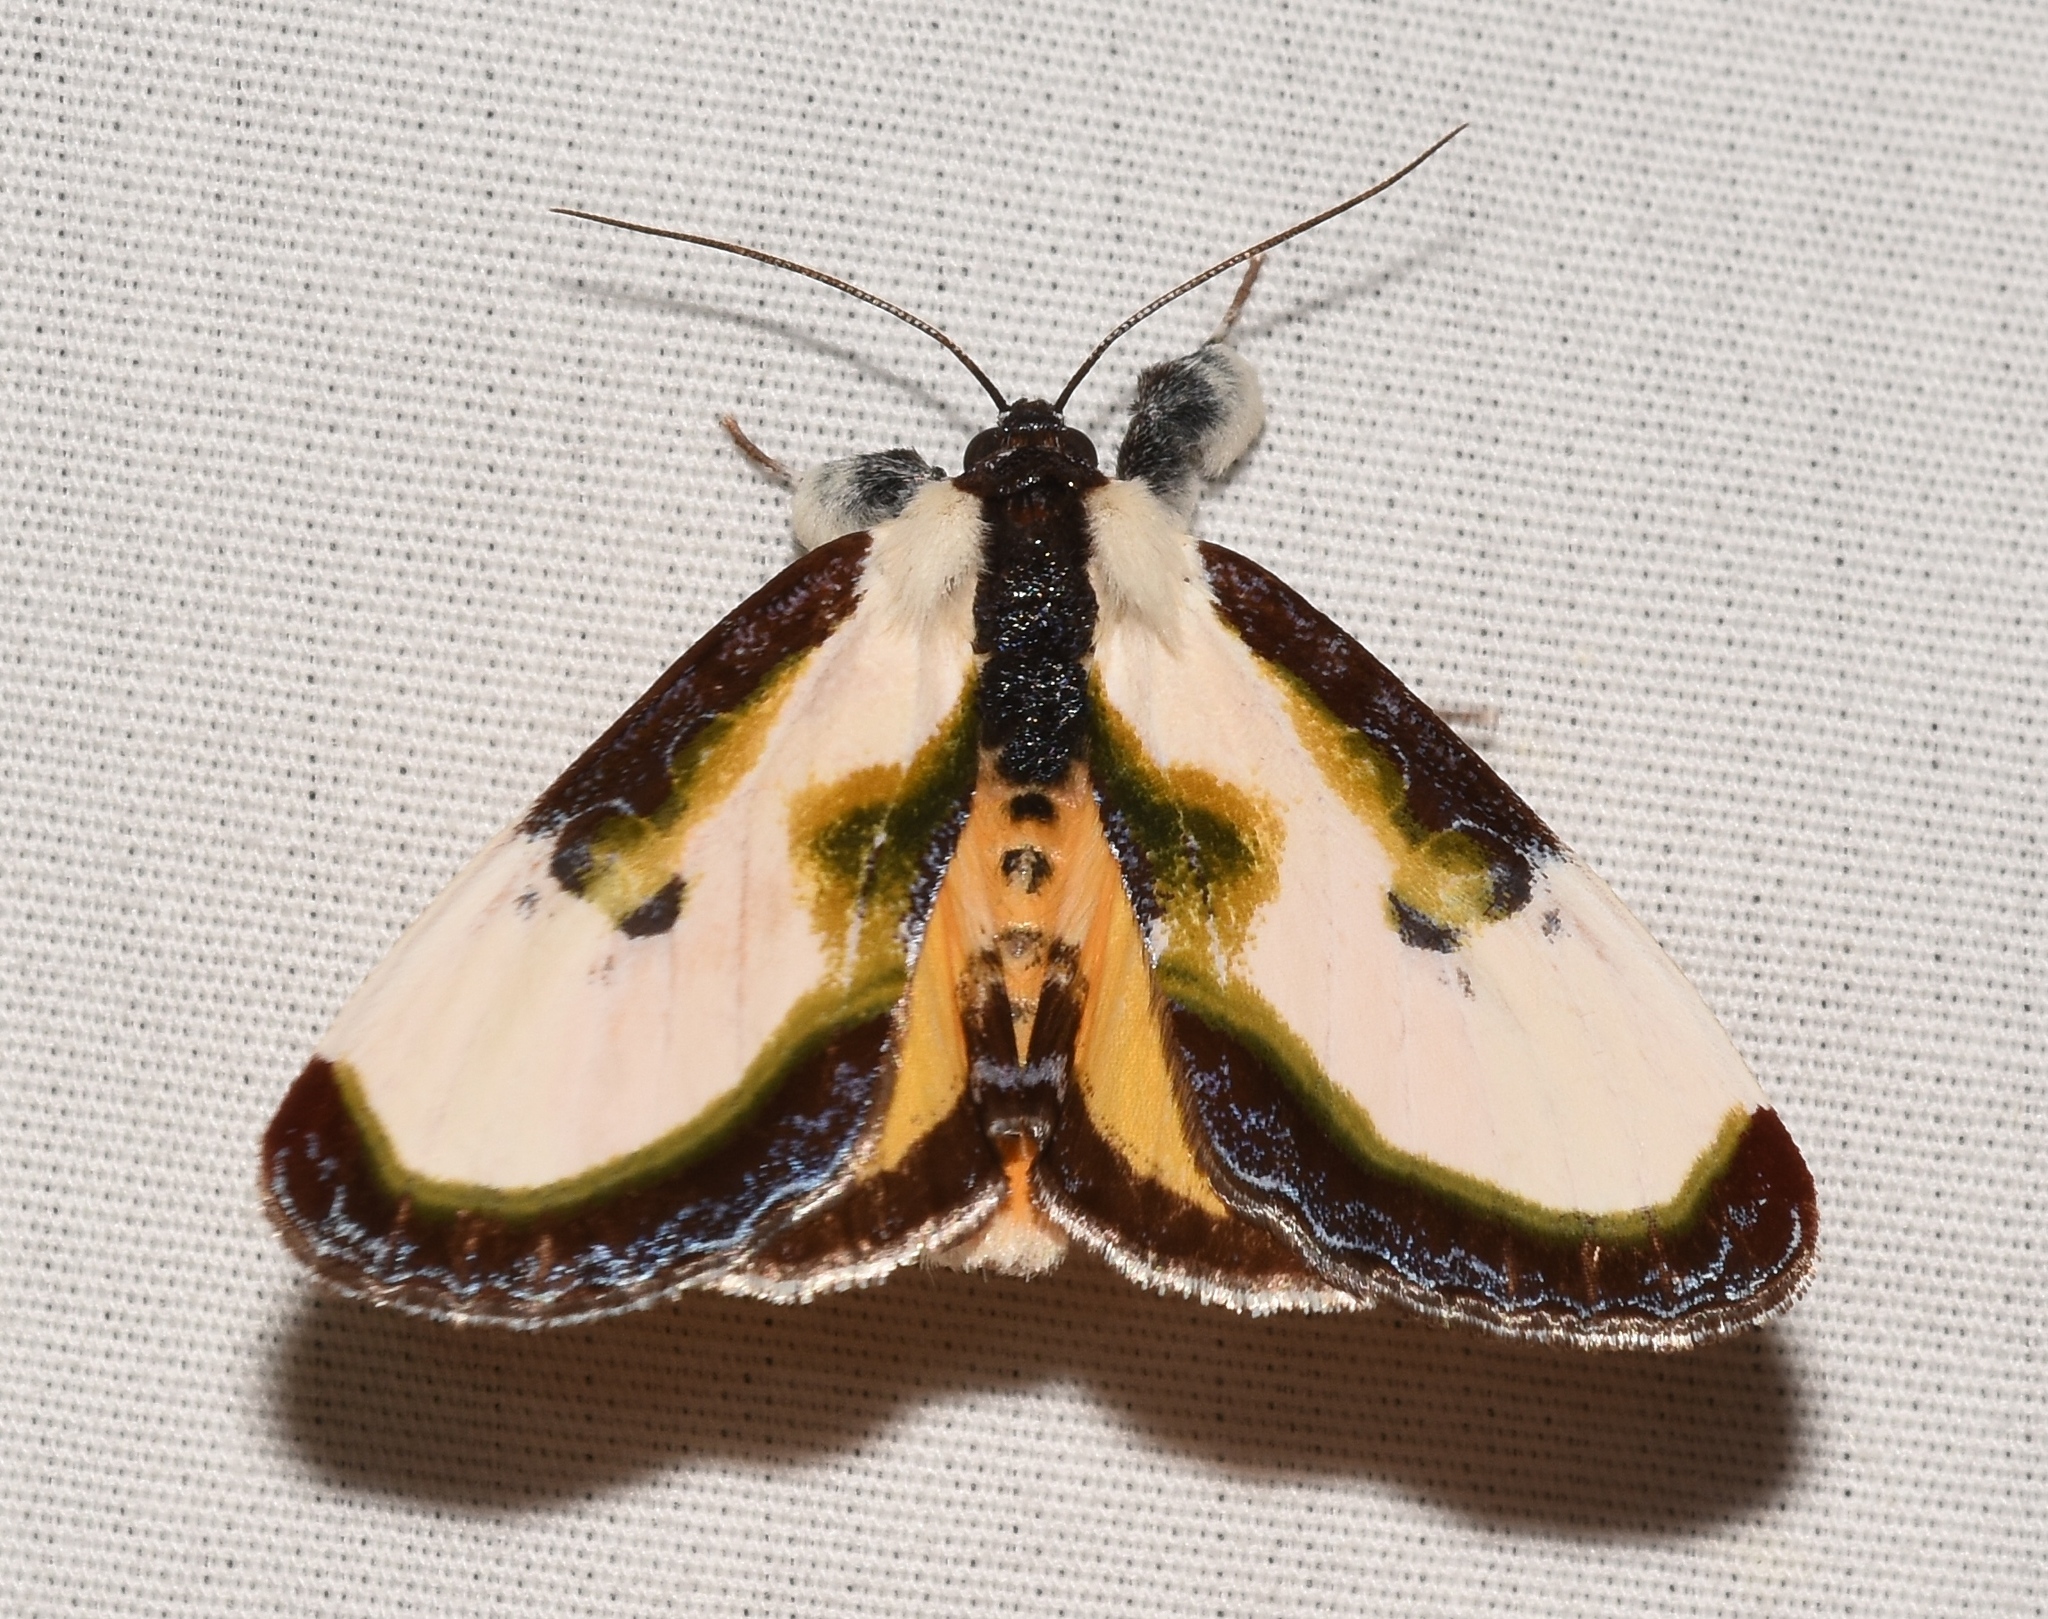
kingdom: Animalia
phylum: Arthropoda
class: Insecta
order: Lepidoptera
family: Noctuidae
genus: Eudryas
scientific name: Eudryas grata
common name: Beautiful wood-nymph
